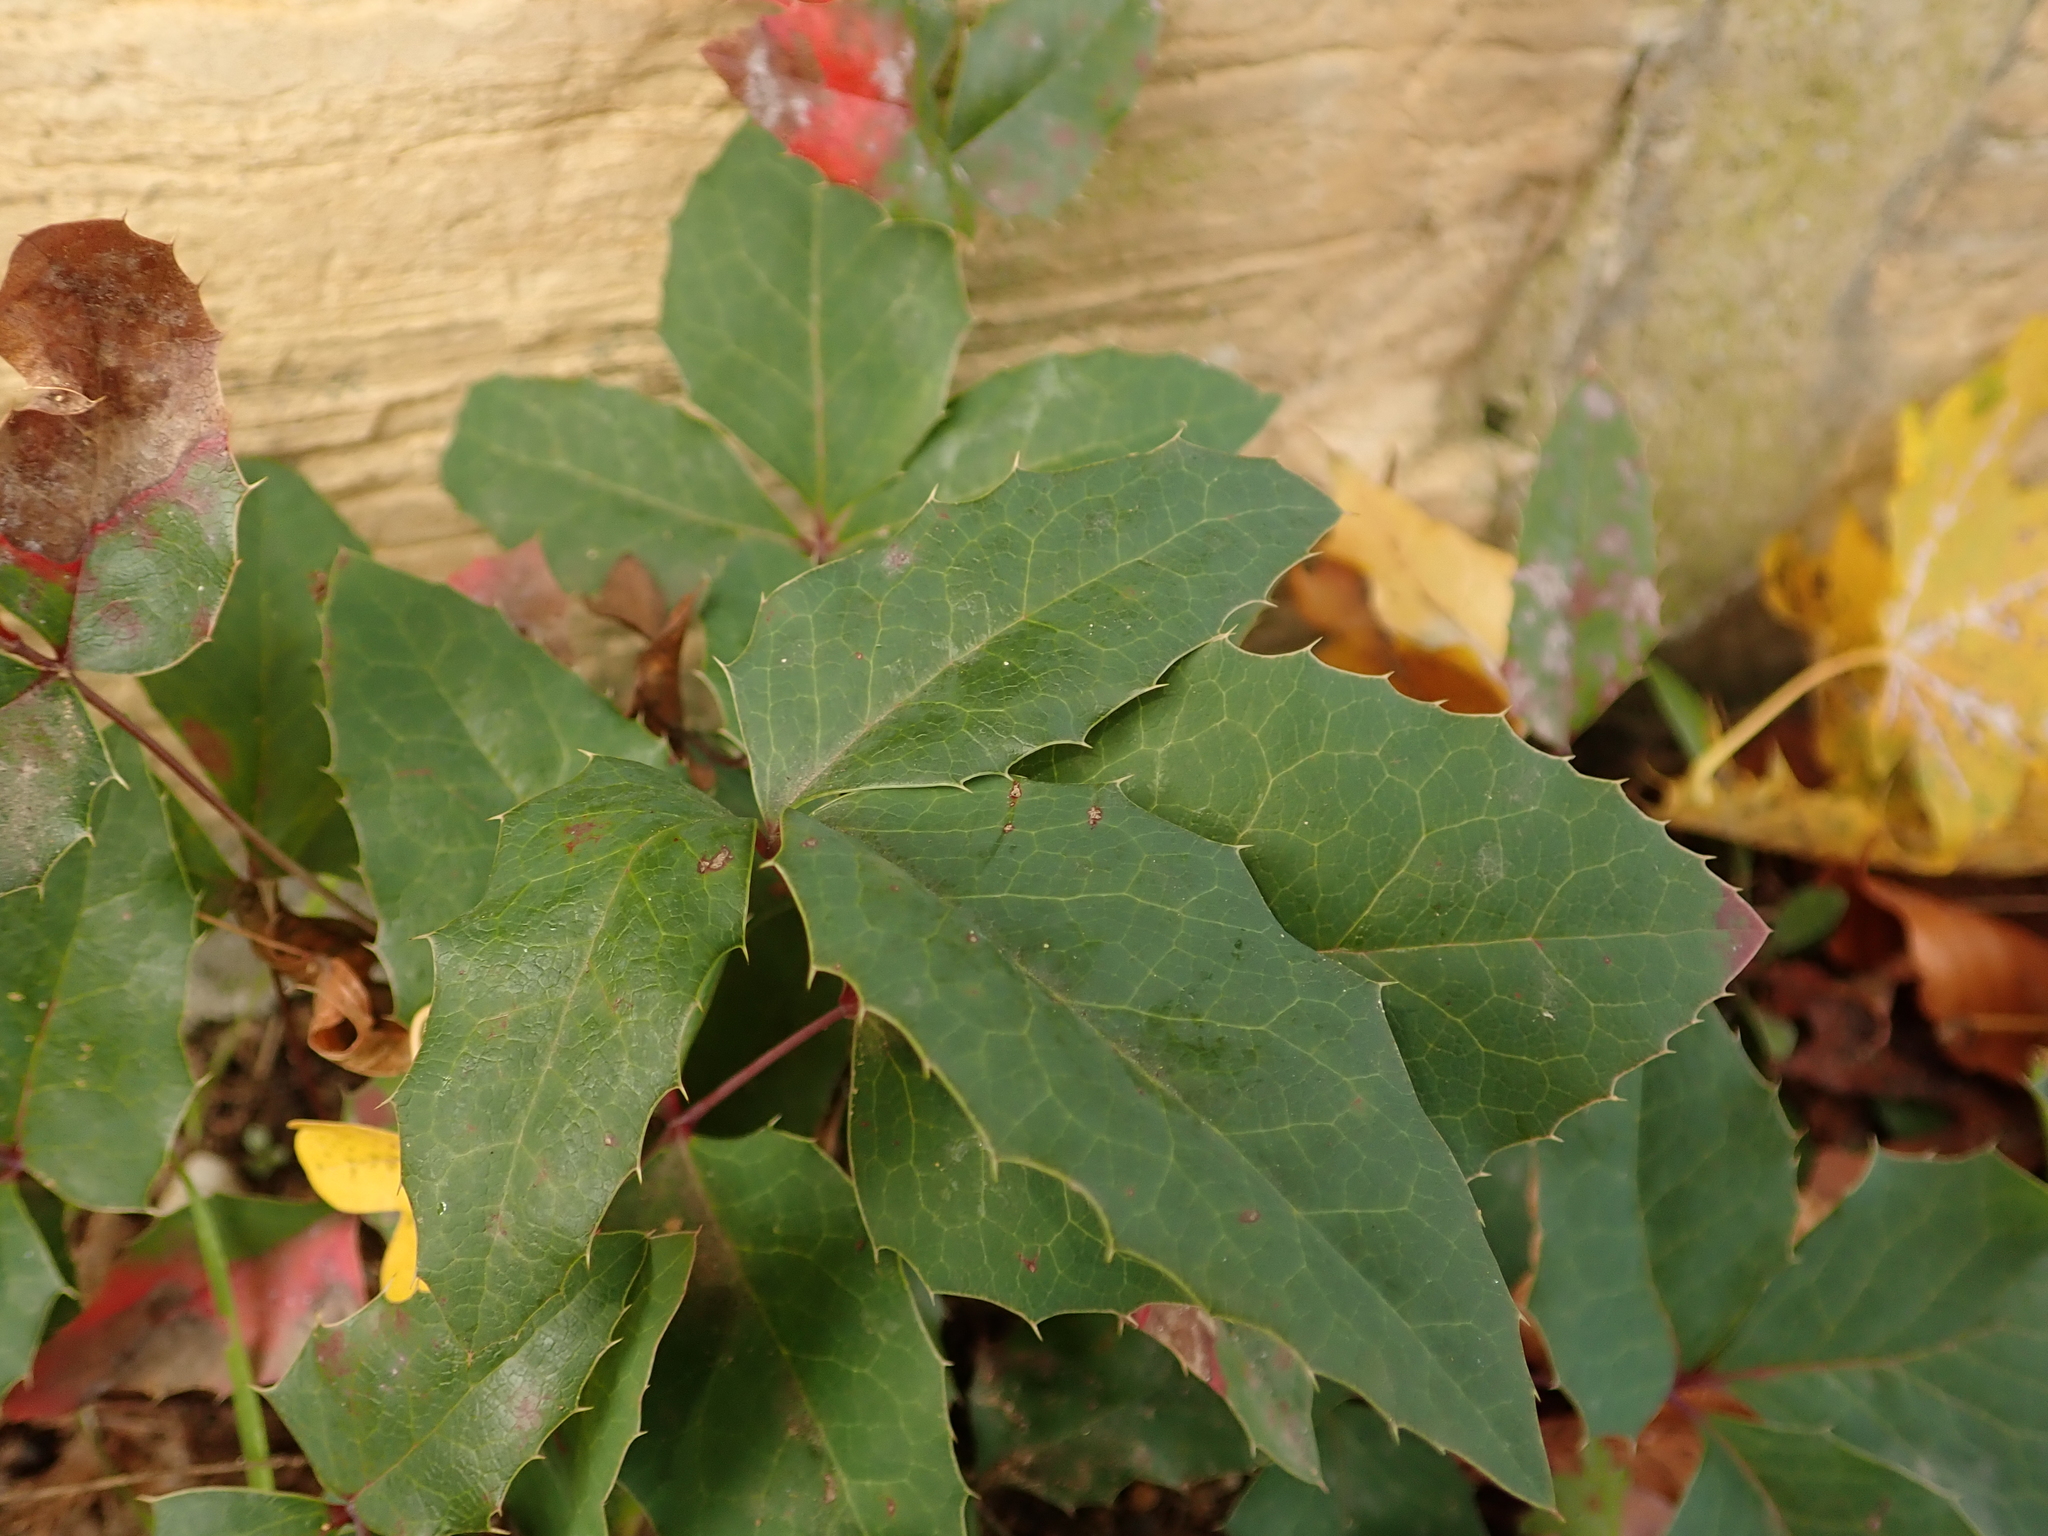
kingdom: Plantae
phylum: Tracheophyta
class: Magnoliopsida
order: Ranunculales
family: Berberidaceae
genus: Mahonia
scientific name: Mahonia aquifolium
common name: Oregon-grape
